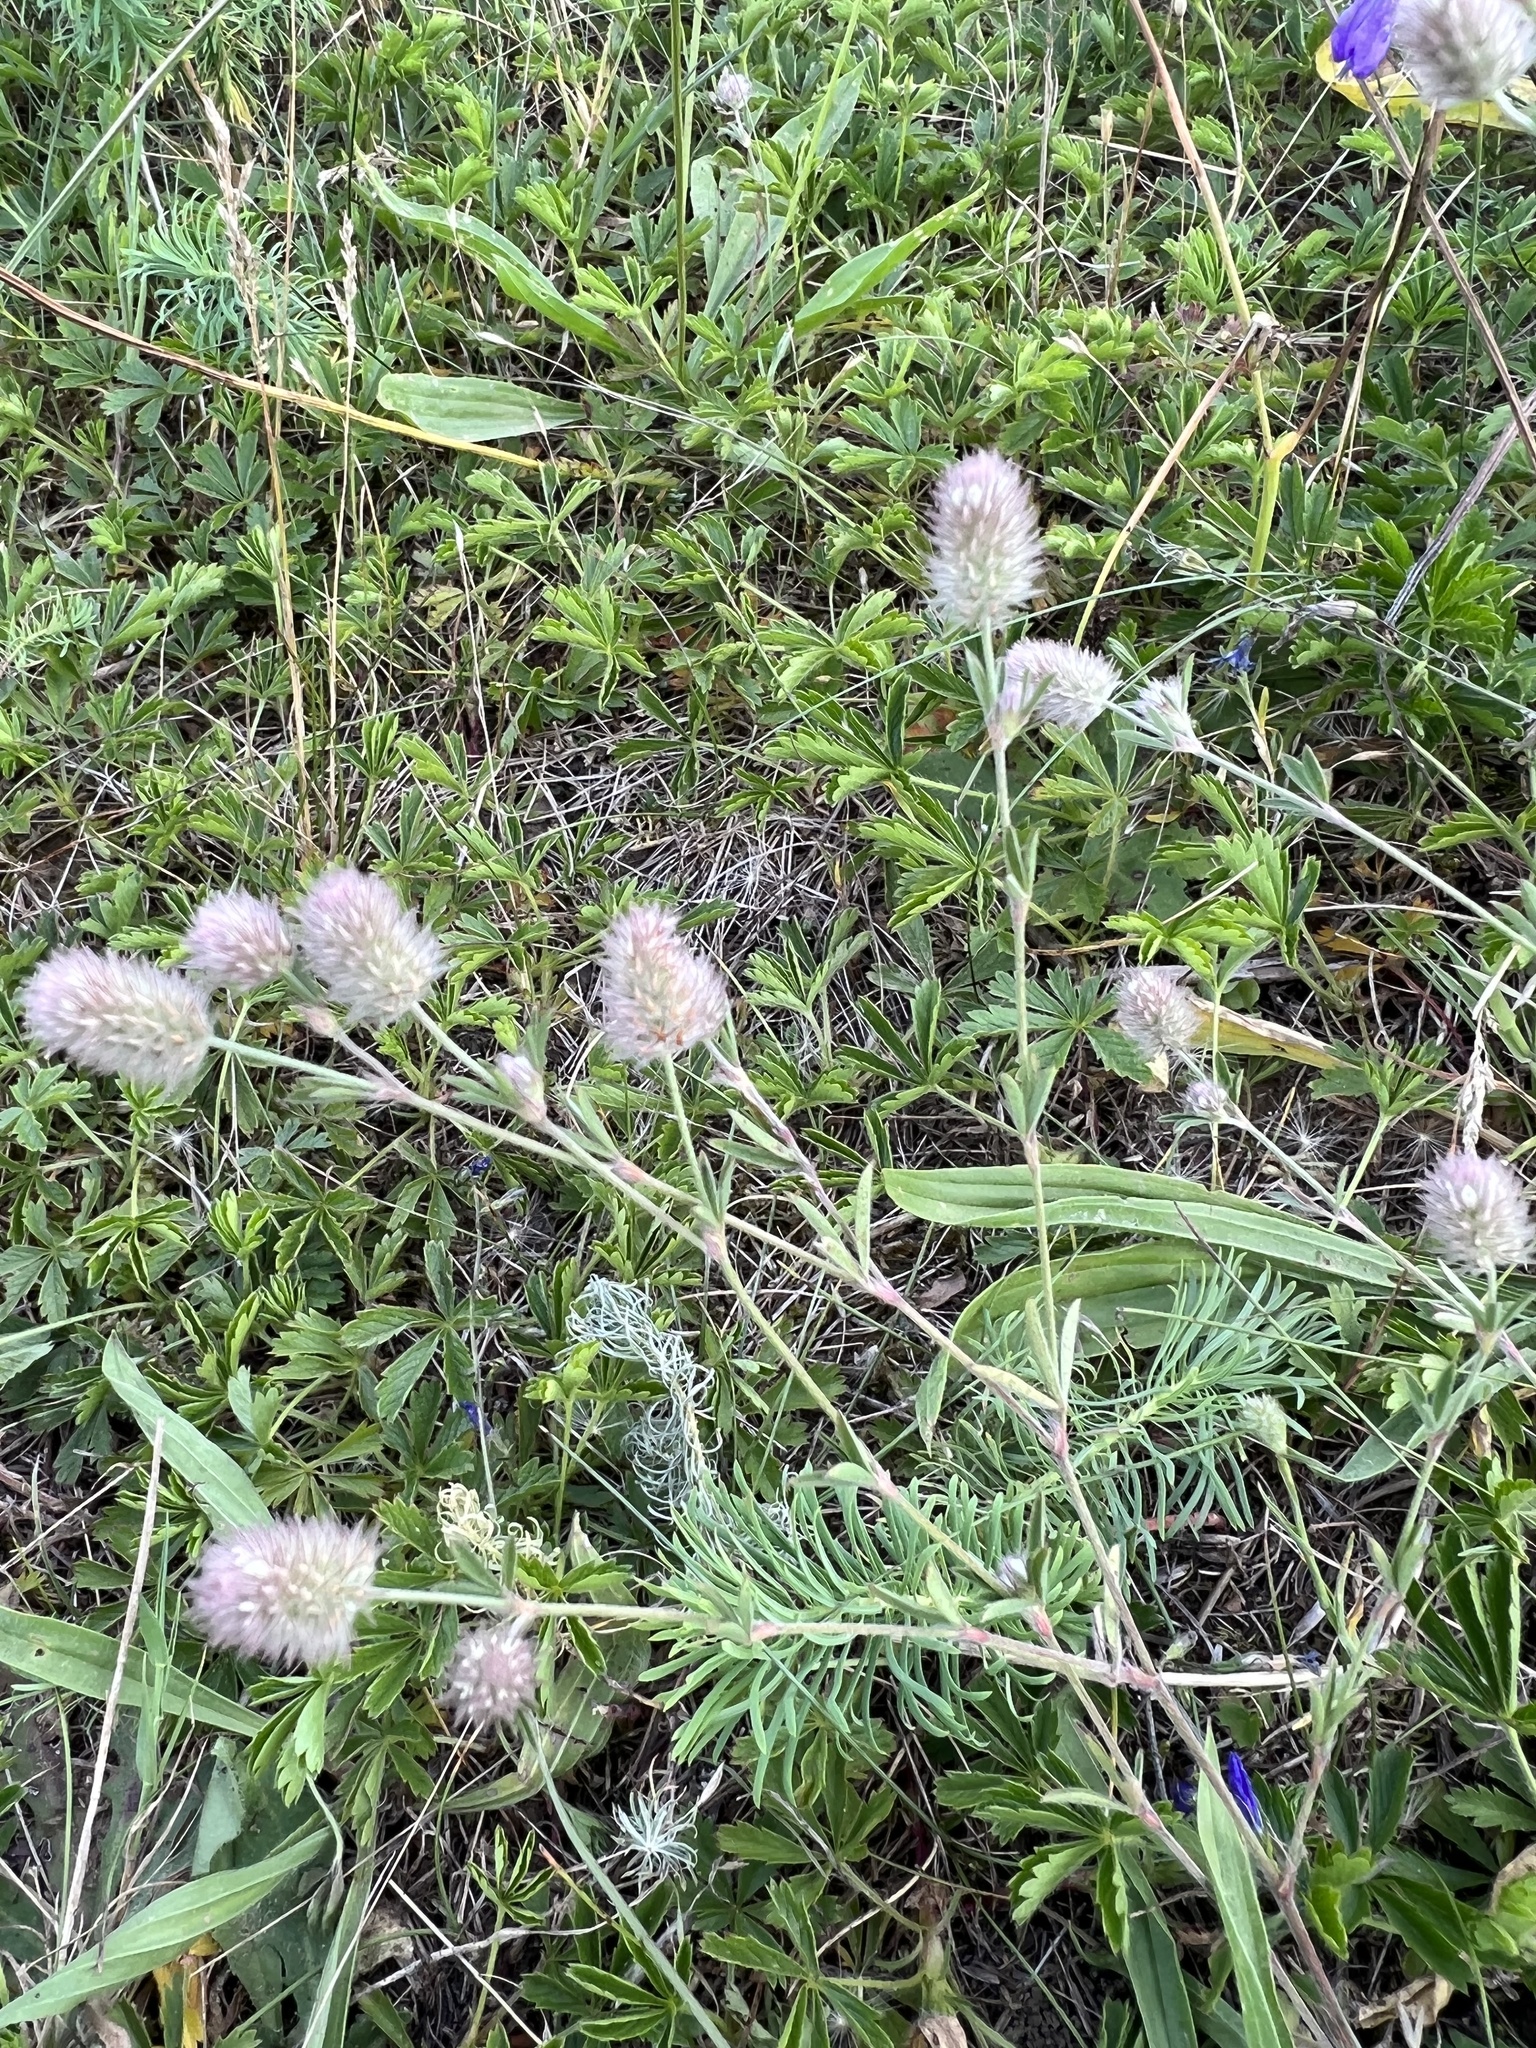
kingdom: Plantae
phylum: Tracheophyta
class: Magnoliopsida
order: Fabales
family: Fabaceae
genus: Trifolium
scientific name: Trifolium arvense
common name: Hare's-foot clover
